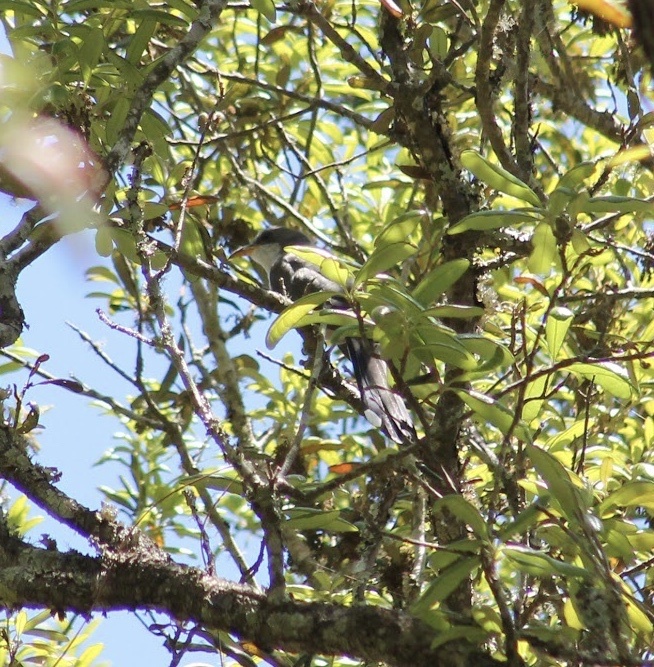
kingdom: Animalia
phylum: Chordata
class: Aves
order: Cuculiformes
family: Cuculidae
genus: Coccyzus
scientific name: Coccyzus americanus
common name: Yellow-billed cuckoo
